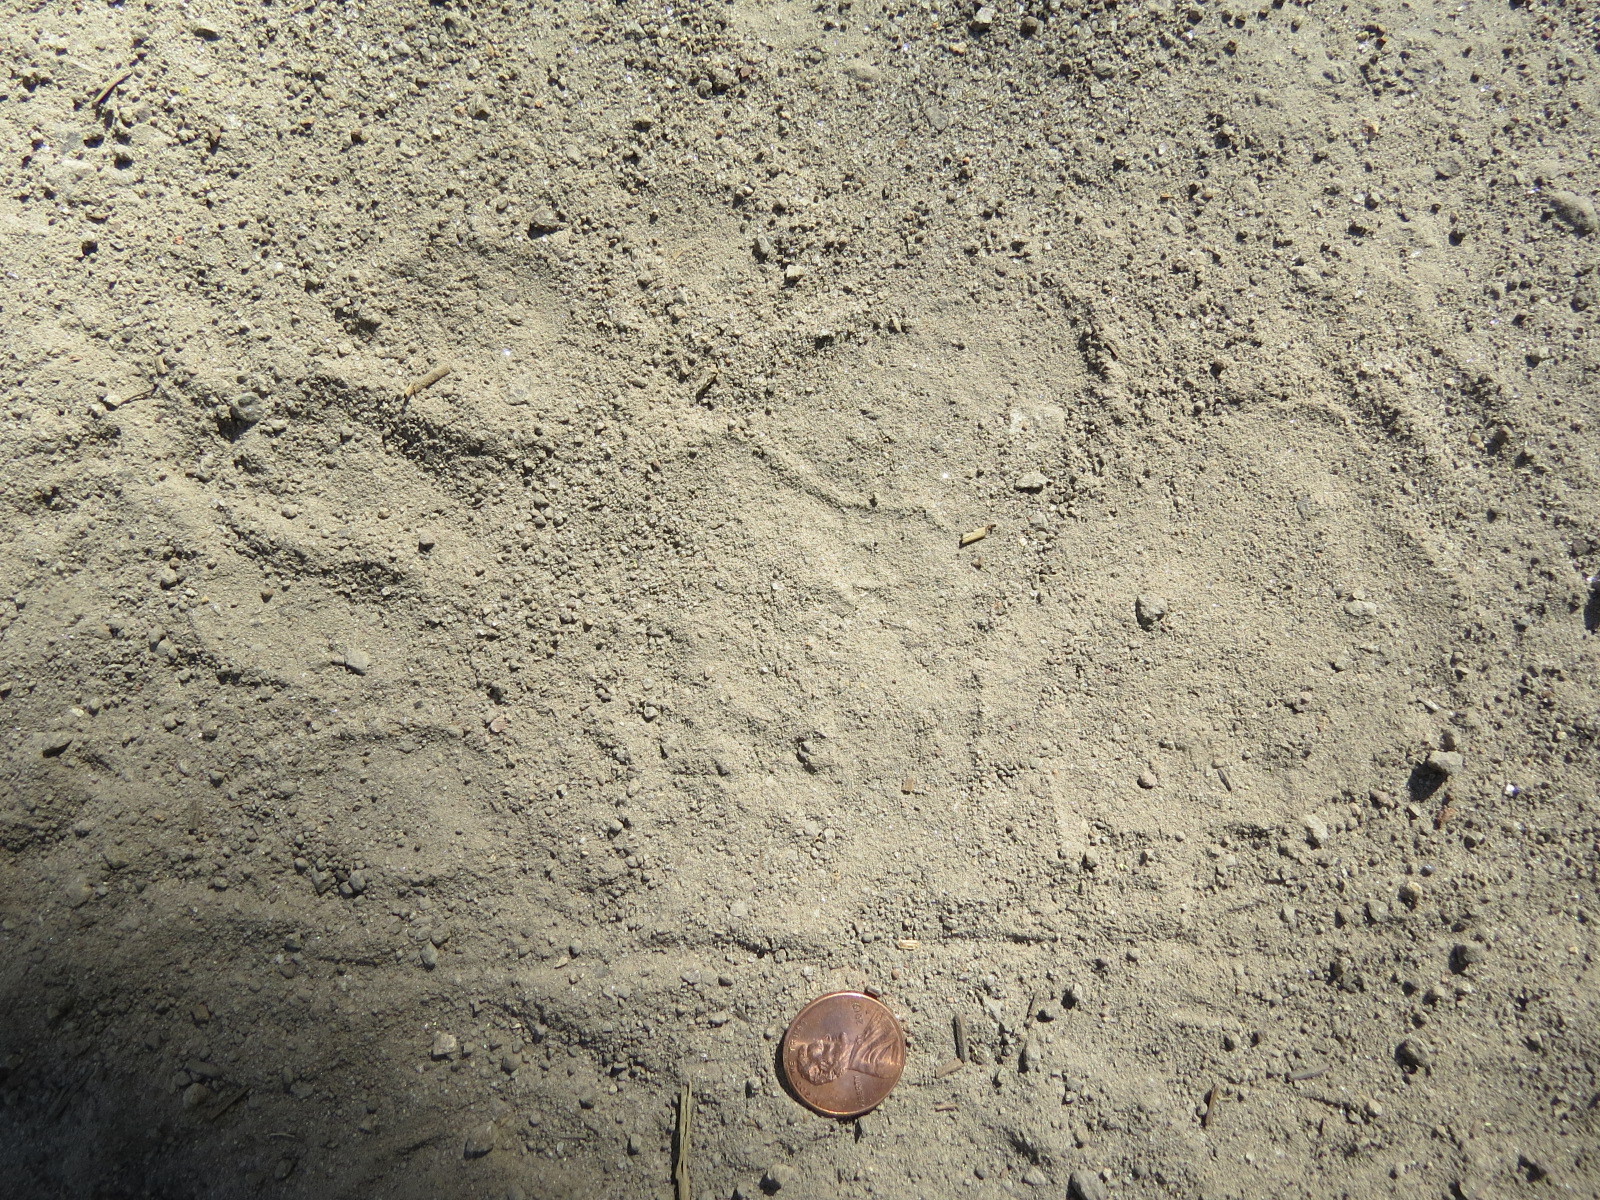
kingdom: Animalia
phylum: Chordata
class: Mammalia
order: Carnivora
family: Ursidae
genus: Ursus
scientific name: Ursus americanus
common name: American black bear
